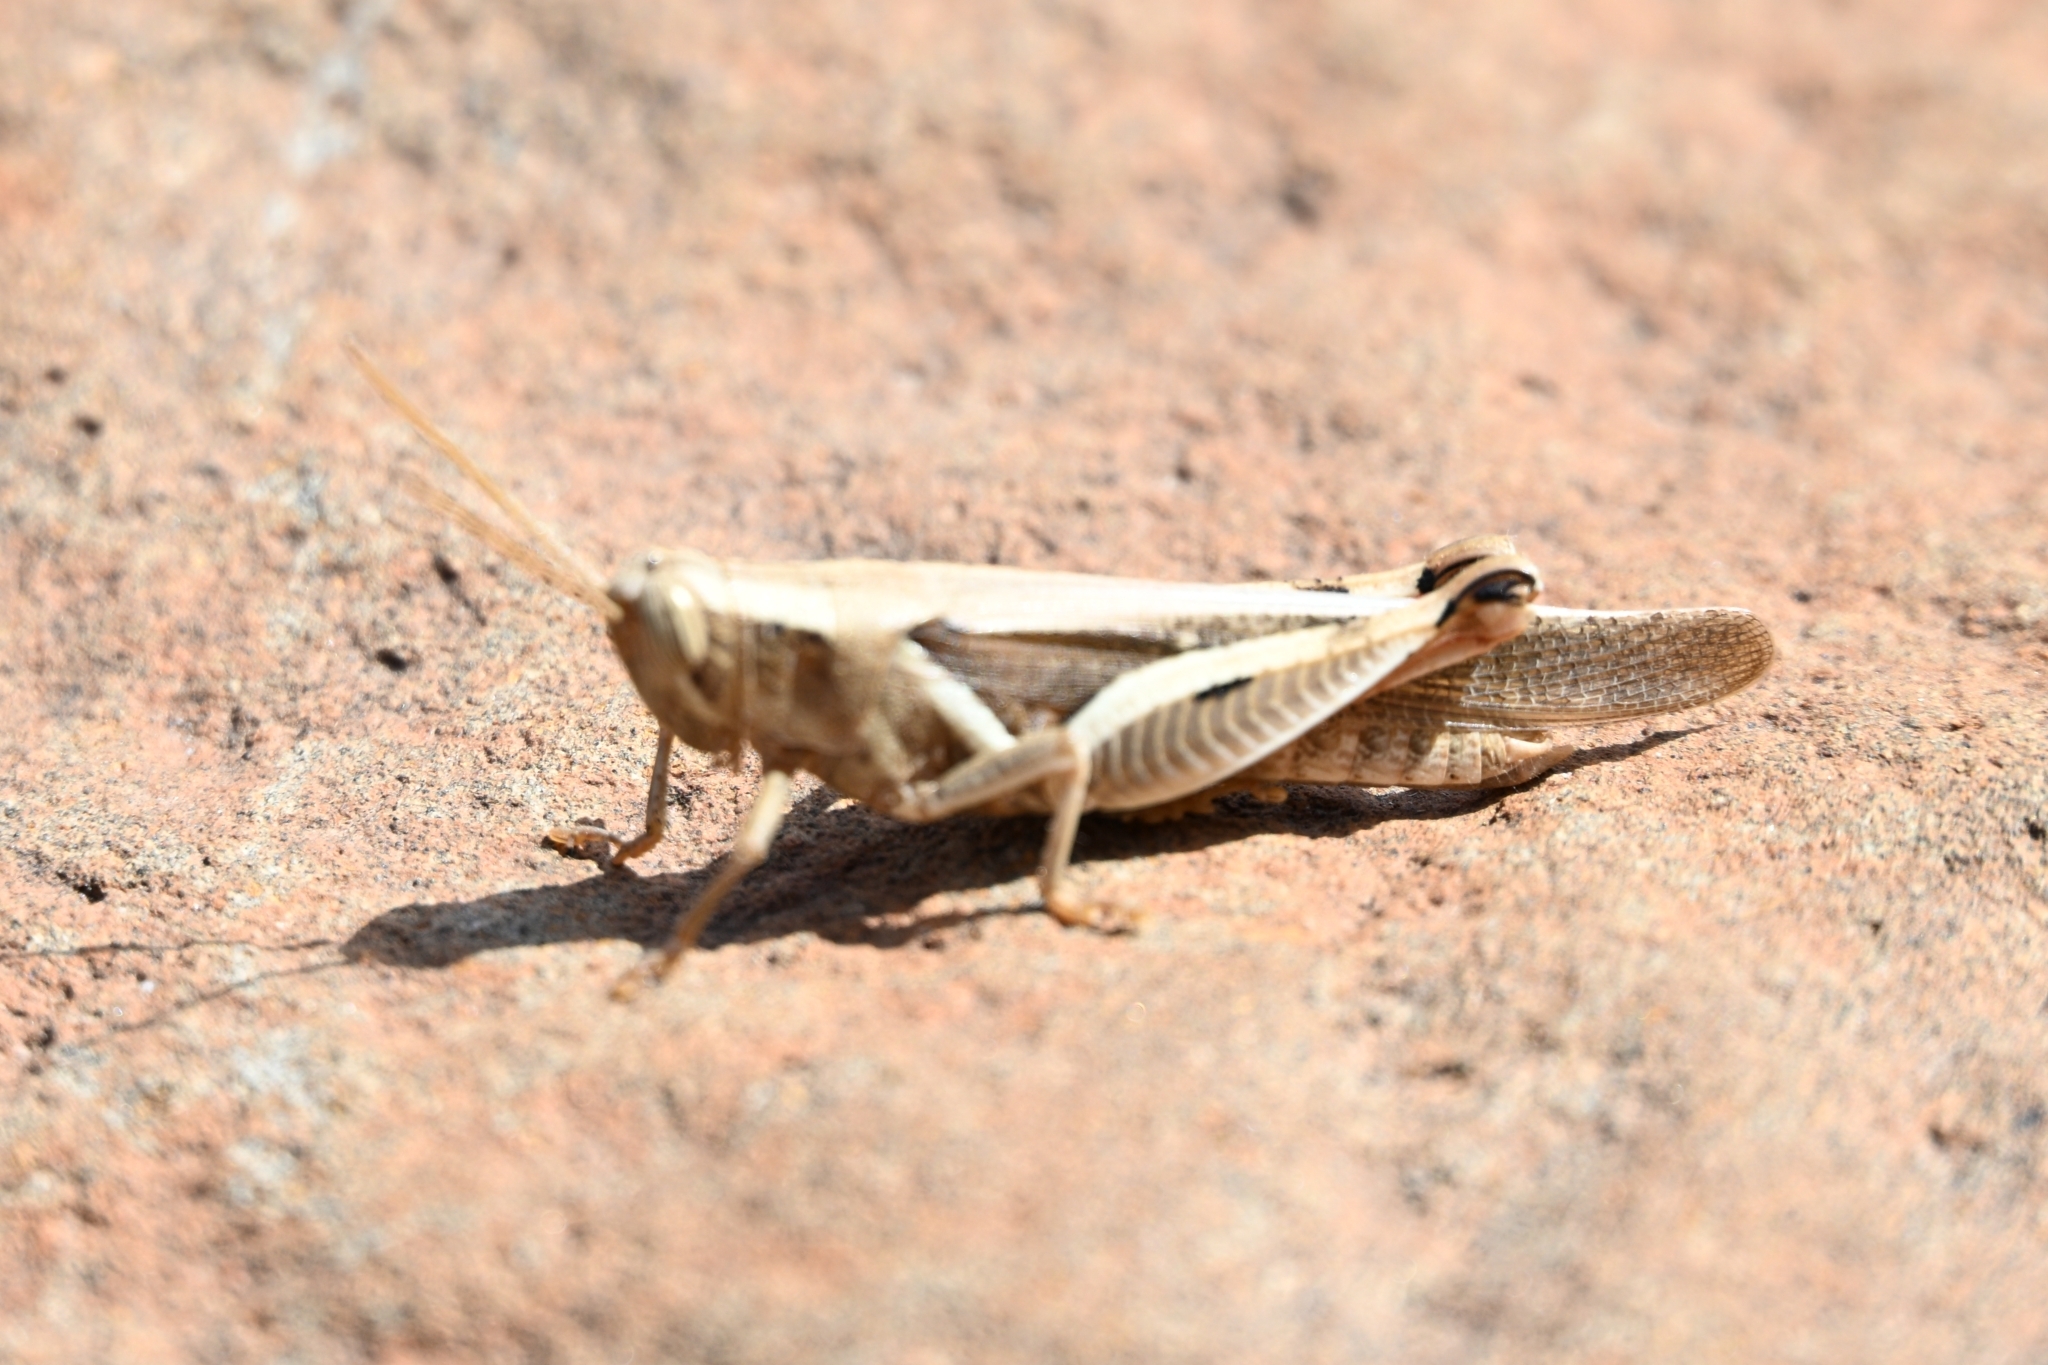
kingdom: Animalia
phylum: Arthropoda
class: Insecta
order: Orthoptera
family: Acrididae
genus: Diabolocatantops
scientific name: Diabolocatantops axillaris
